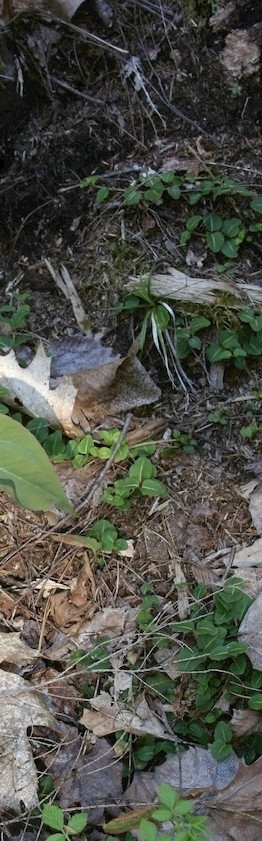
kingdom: Plantae
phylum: Tracheophyta
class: Magnoliopsida
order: Gentianales
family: Rubiaceae
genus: Mitchella
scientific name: Mitchella repens
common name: Partridge-berry
